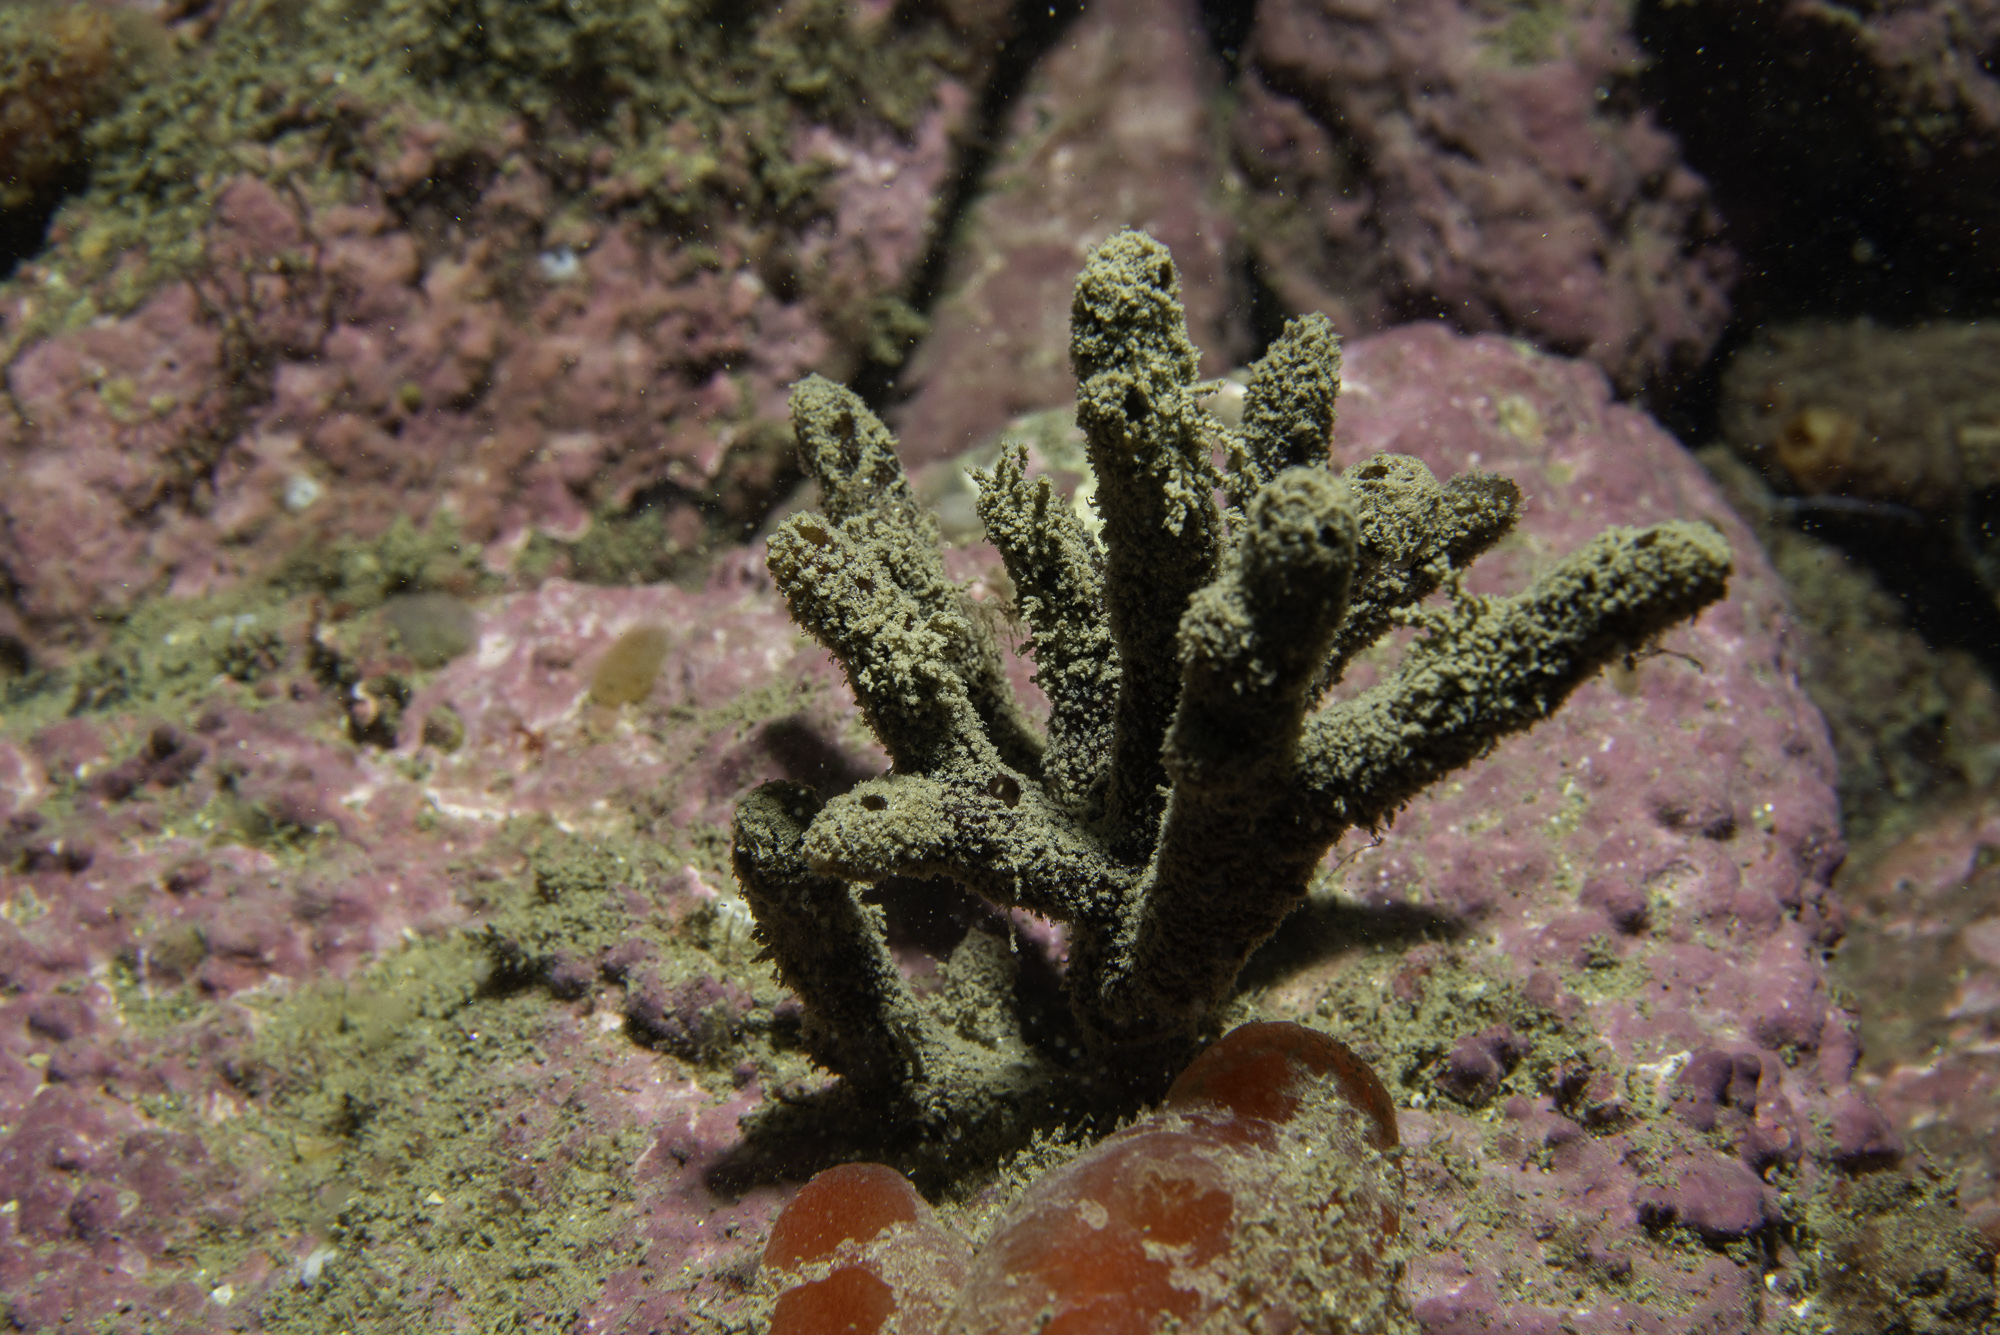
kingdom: Animalia
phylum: Porifera
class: Demospongiae
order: Axinellida
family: Raspailiidae
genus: Raspailia
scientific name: Raspailia ramosa
